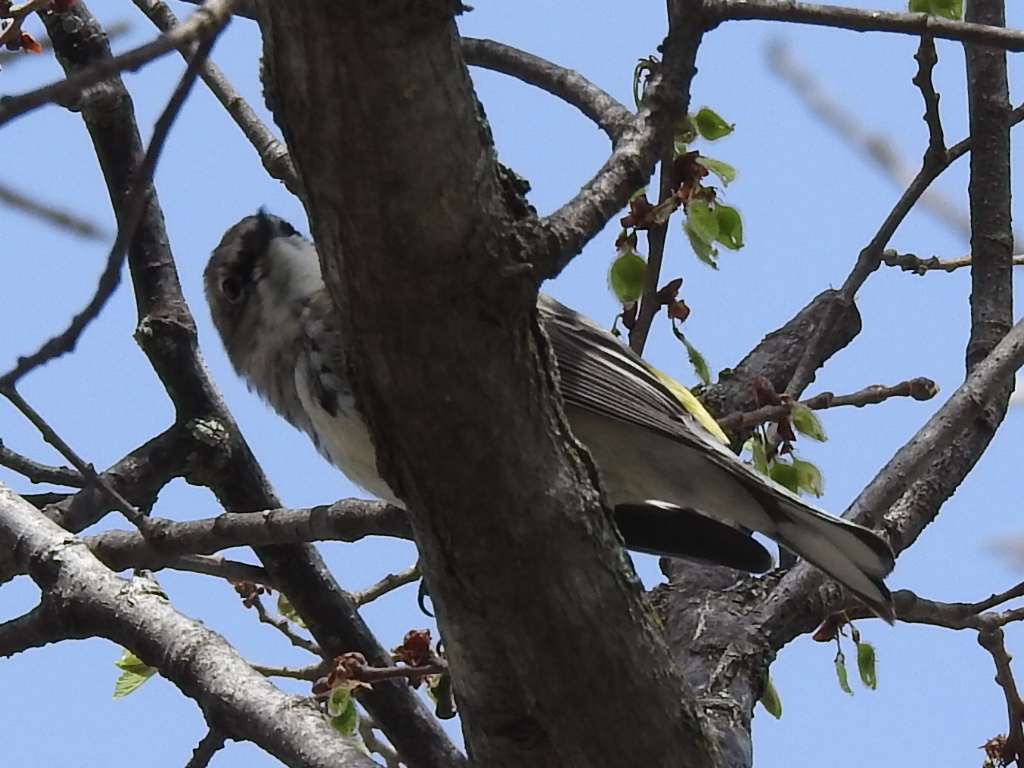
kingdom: Animalia
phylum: Chordata
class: Aves
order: Passeriformes
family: Parulidae
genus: Setophaga
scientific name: Setophaga coronata
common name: Myrtle warbler
